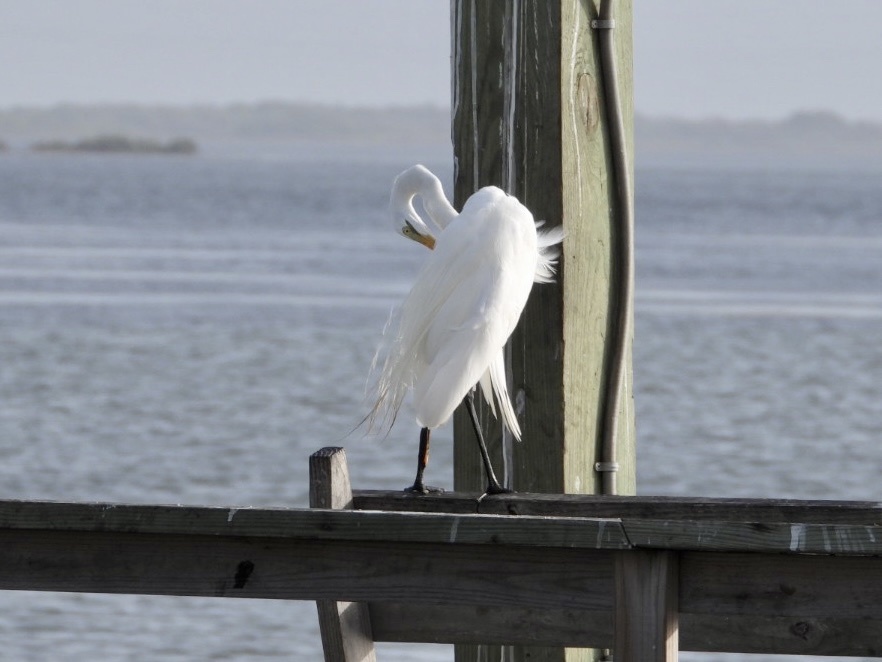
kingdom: Animalia
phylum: Chordata
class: Aves
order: Pelecaniformes
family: Ardeidae
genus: Ardea
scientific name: Ardea alba
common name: Great egret
